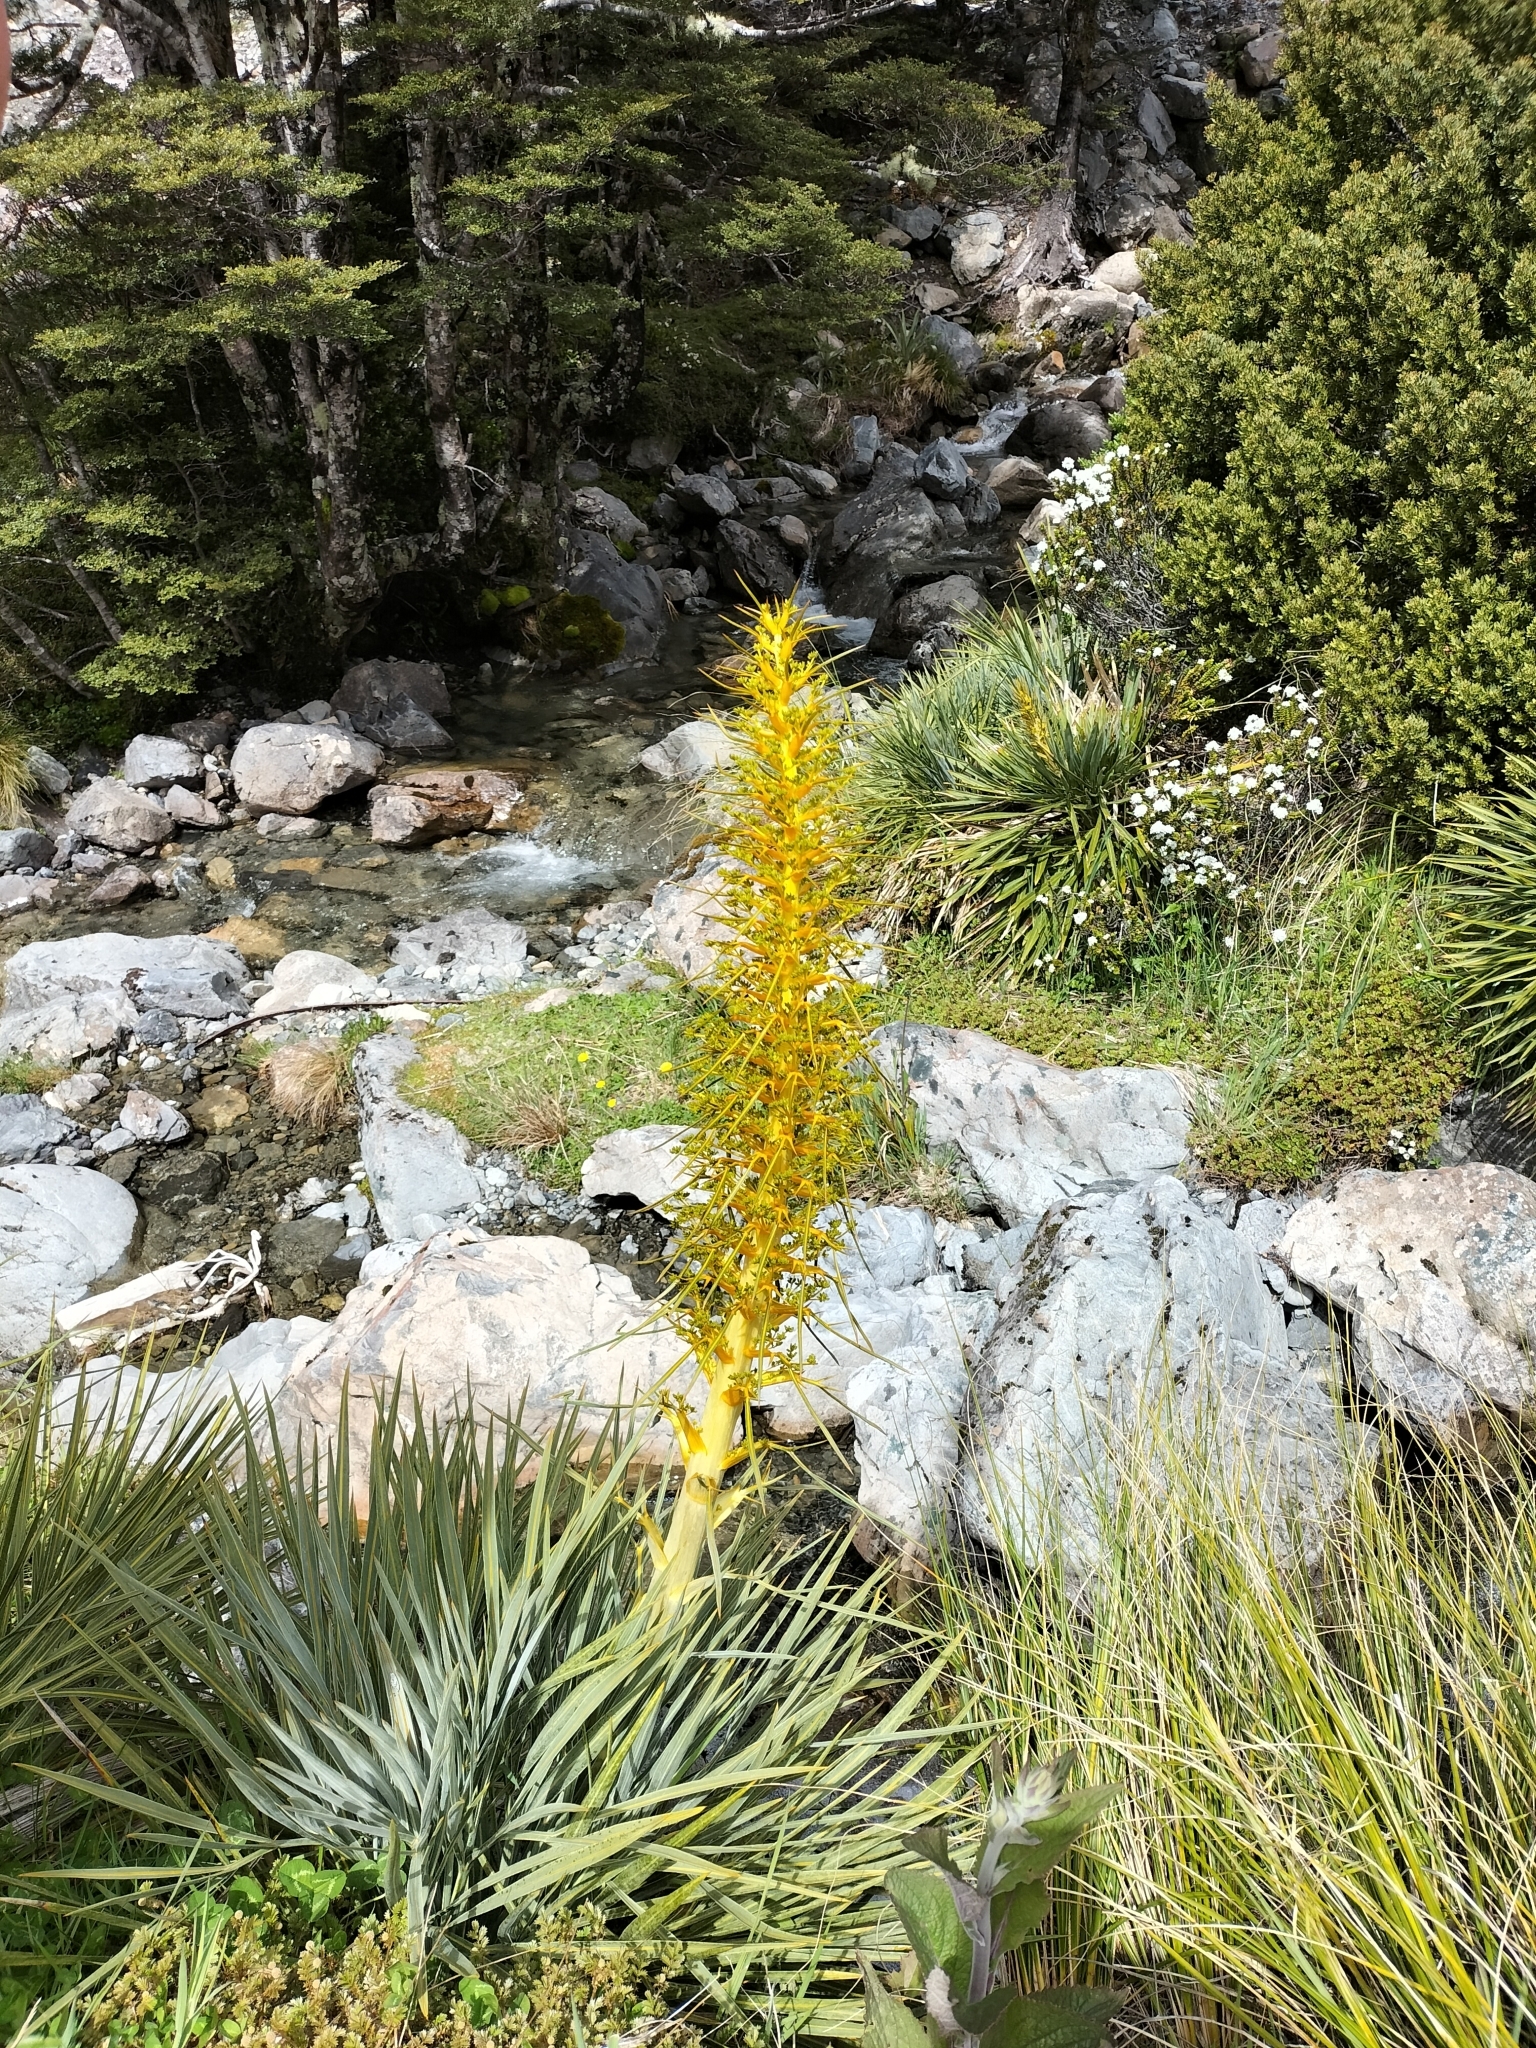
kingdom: Plantae
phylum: Tracheophyta
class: Magnoliopsida
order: Apiales
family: Apiaceae
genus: Aciphylla
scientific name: Aciphylla colensoi
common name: Colenso's spaniard
